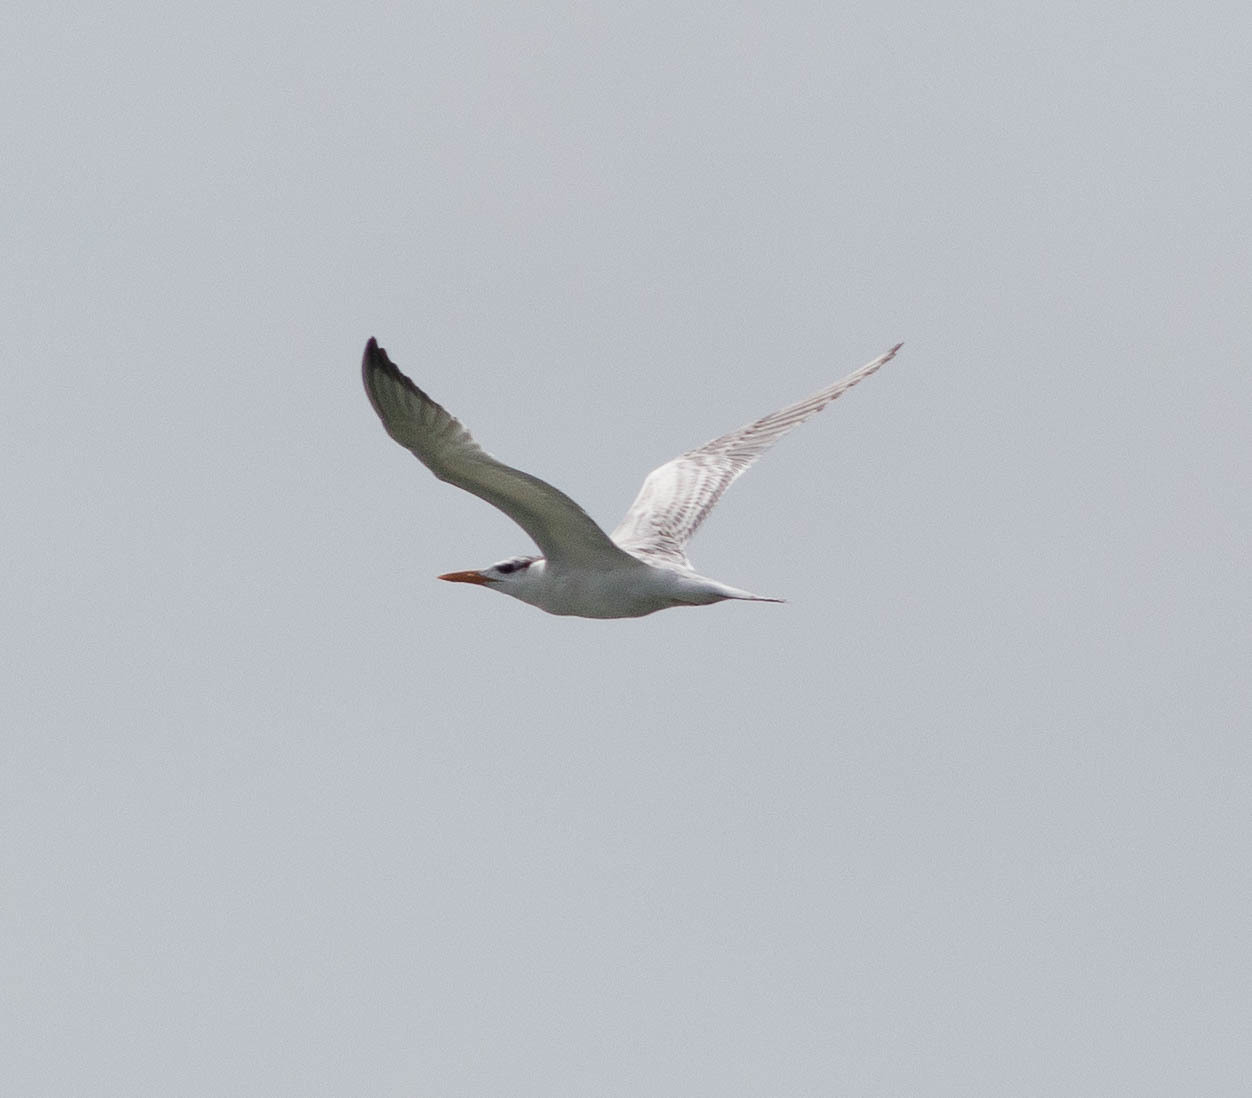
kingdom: Animalia
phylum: Chordata
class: Aves
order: Charadriiformes
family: Laridae
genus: Thalasseus
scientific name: Thalasseus maximus
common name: Royal tern
